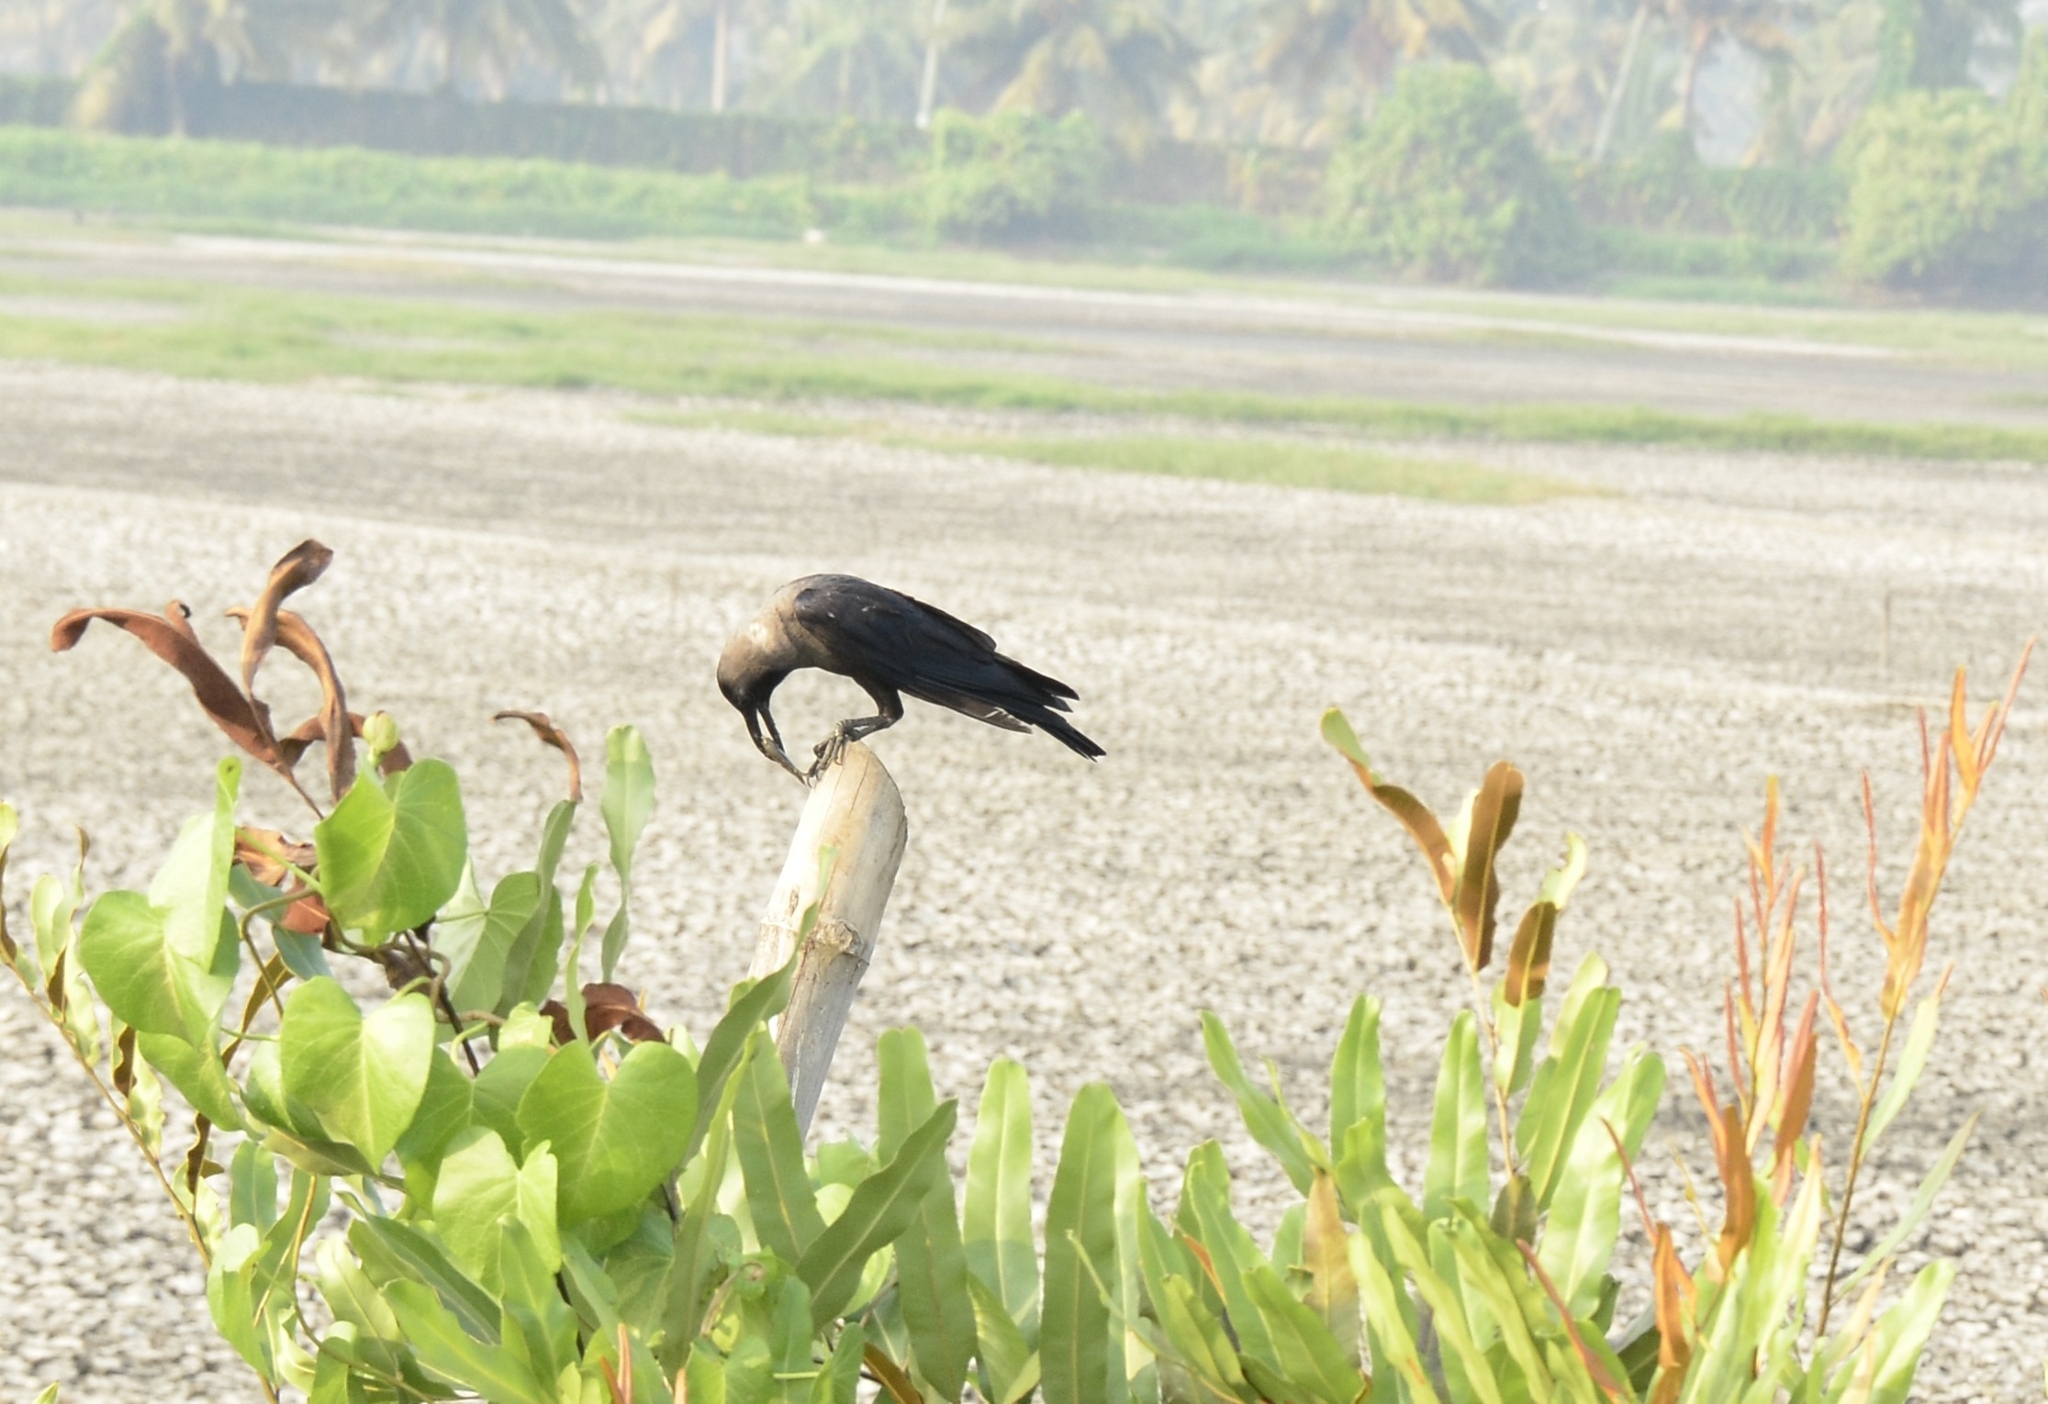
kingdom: Animalia
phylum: Chordata
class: Aves
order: Passeriformes
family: Corvidae
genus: Corvus
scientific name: Corvus splendens
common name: House crow
